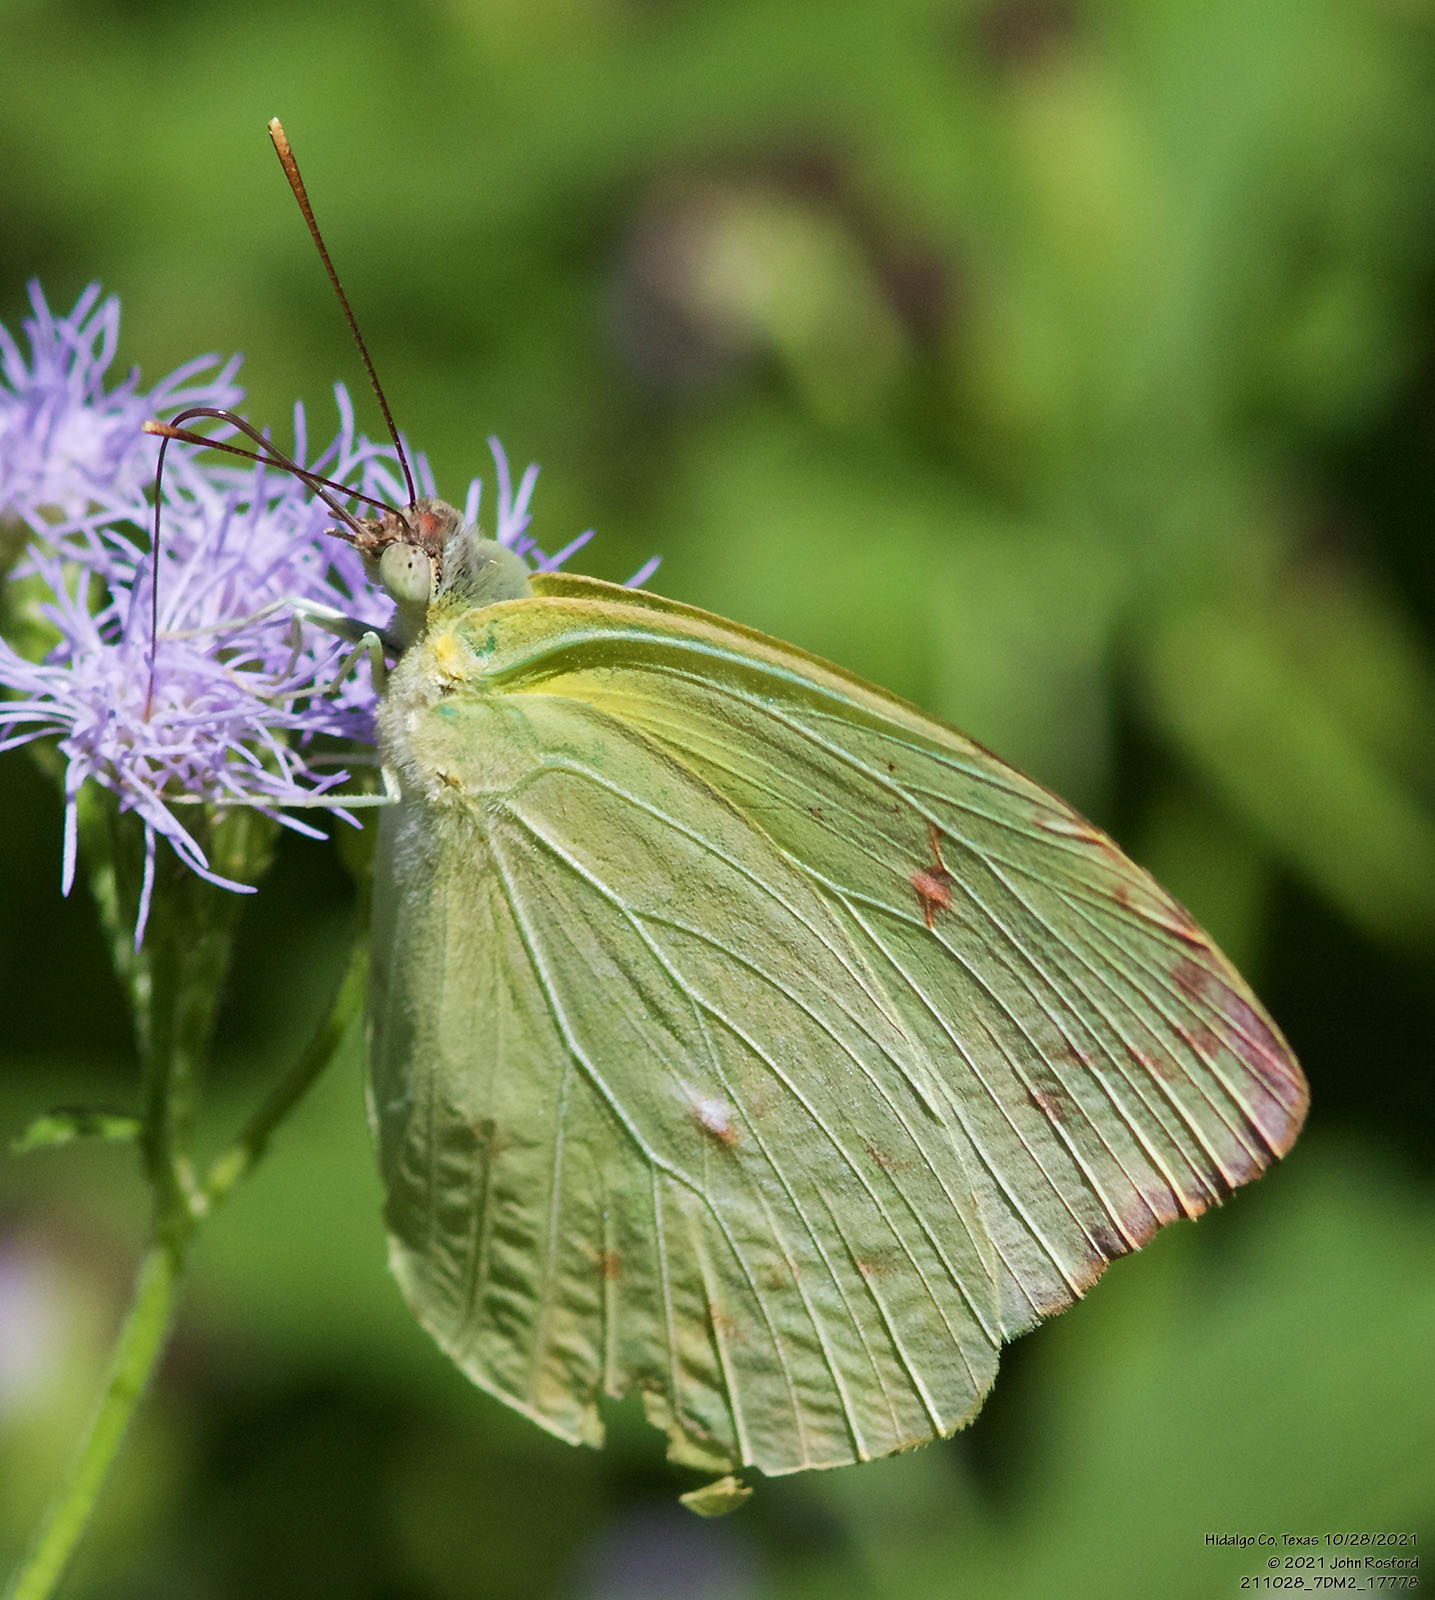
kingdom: Animalia
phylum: Arthropoda
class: Insecta
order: Lepidoptera
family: Pieridae
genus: Aphrissa
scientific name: Aphrissa statira
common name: Statira sulphur
